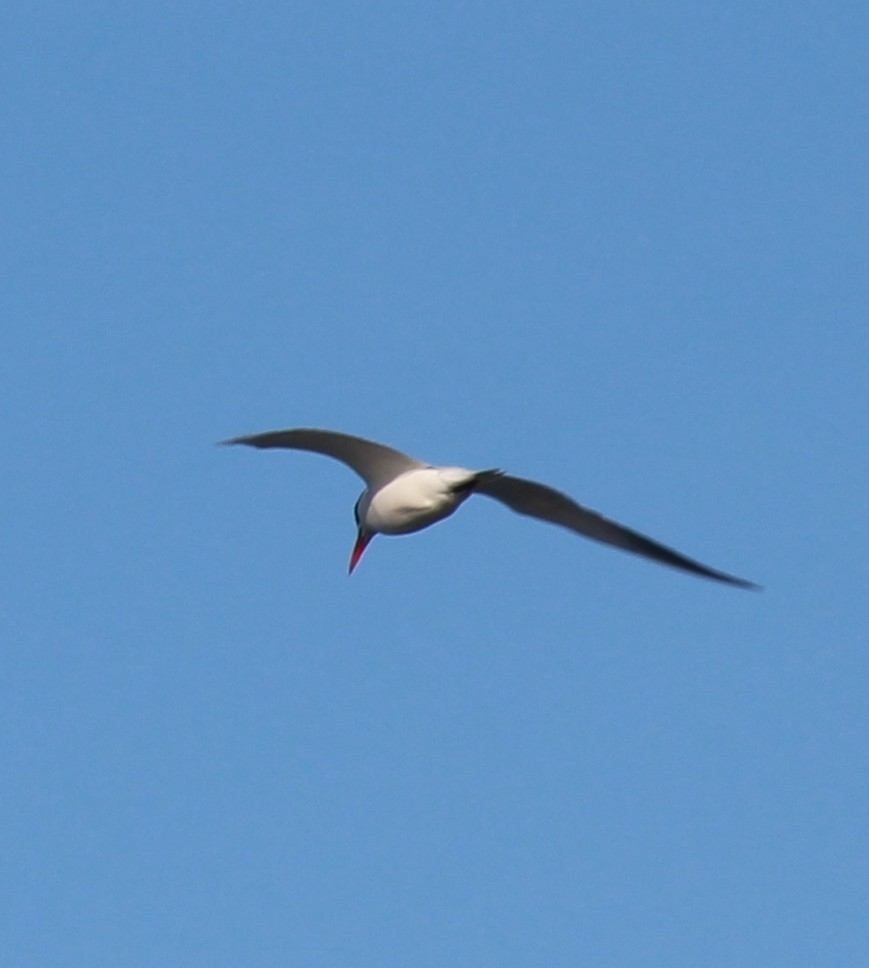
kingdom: Animalia
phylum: Chordata
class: Aves
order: Charadriiformes
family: Laridae
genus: Hydroprogne
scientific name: Hydroprogne caspia
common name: Caspian tern
